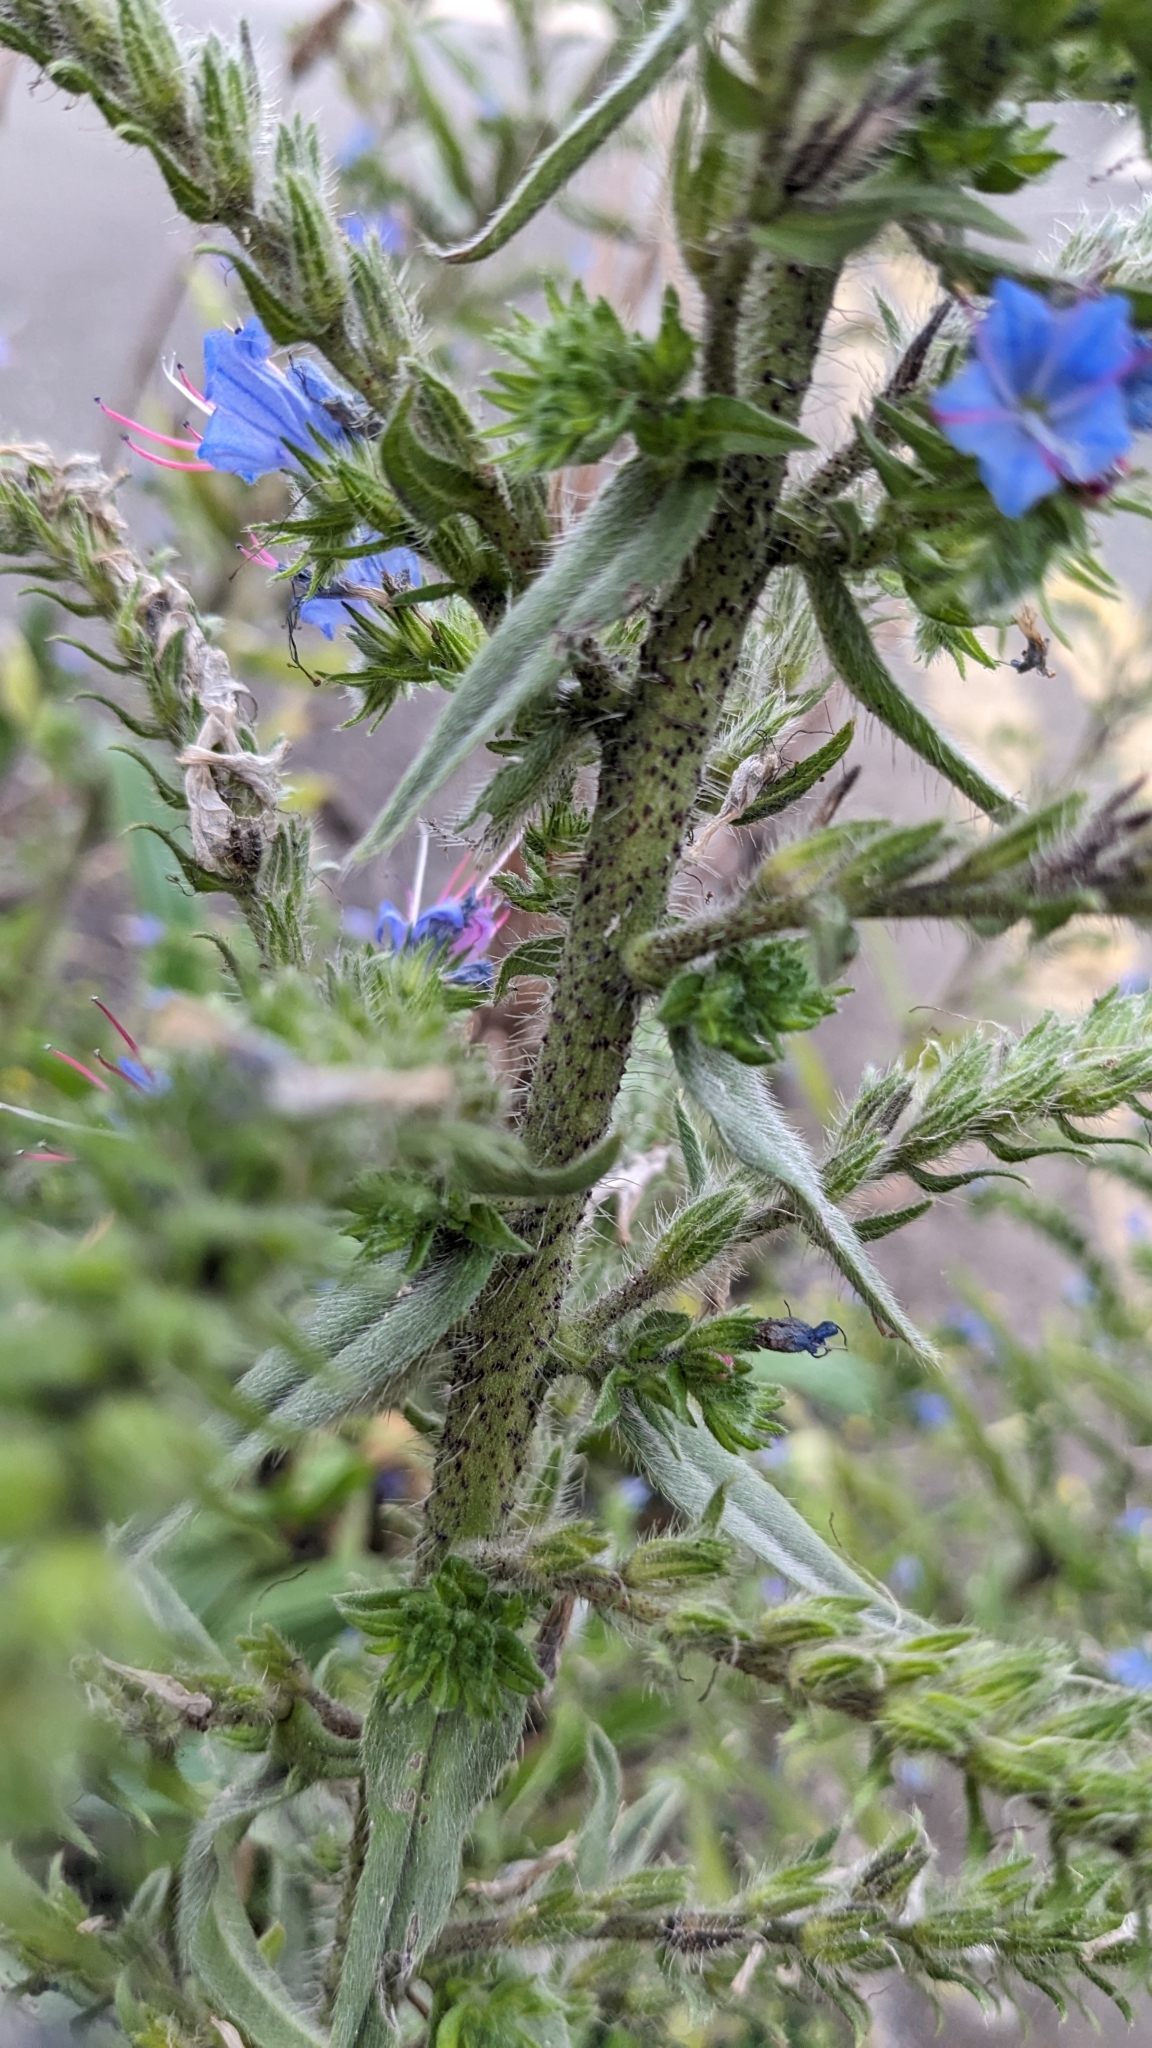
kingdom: Plantae
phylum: Tracheophyta
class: Magnoliopsida
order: Boraginales
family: Boraginaceae
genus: Echium
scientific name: Echium vulgare
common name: Common viper's bugloss
